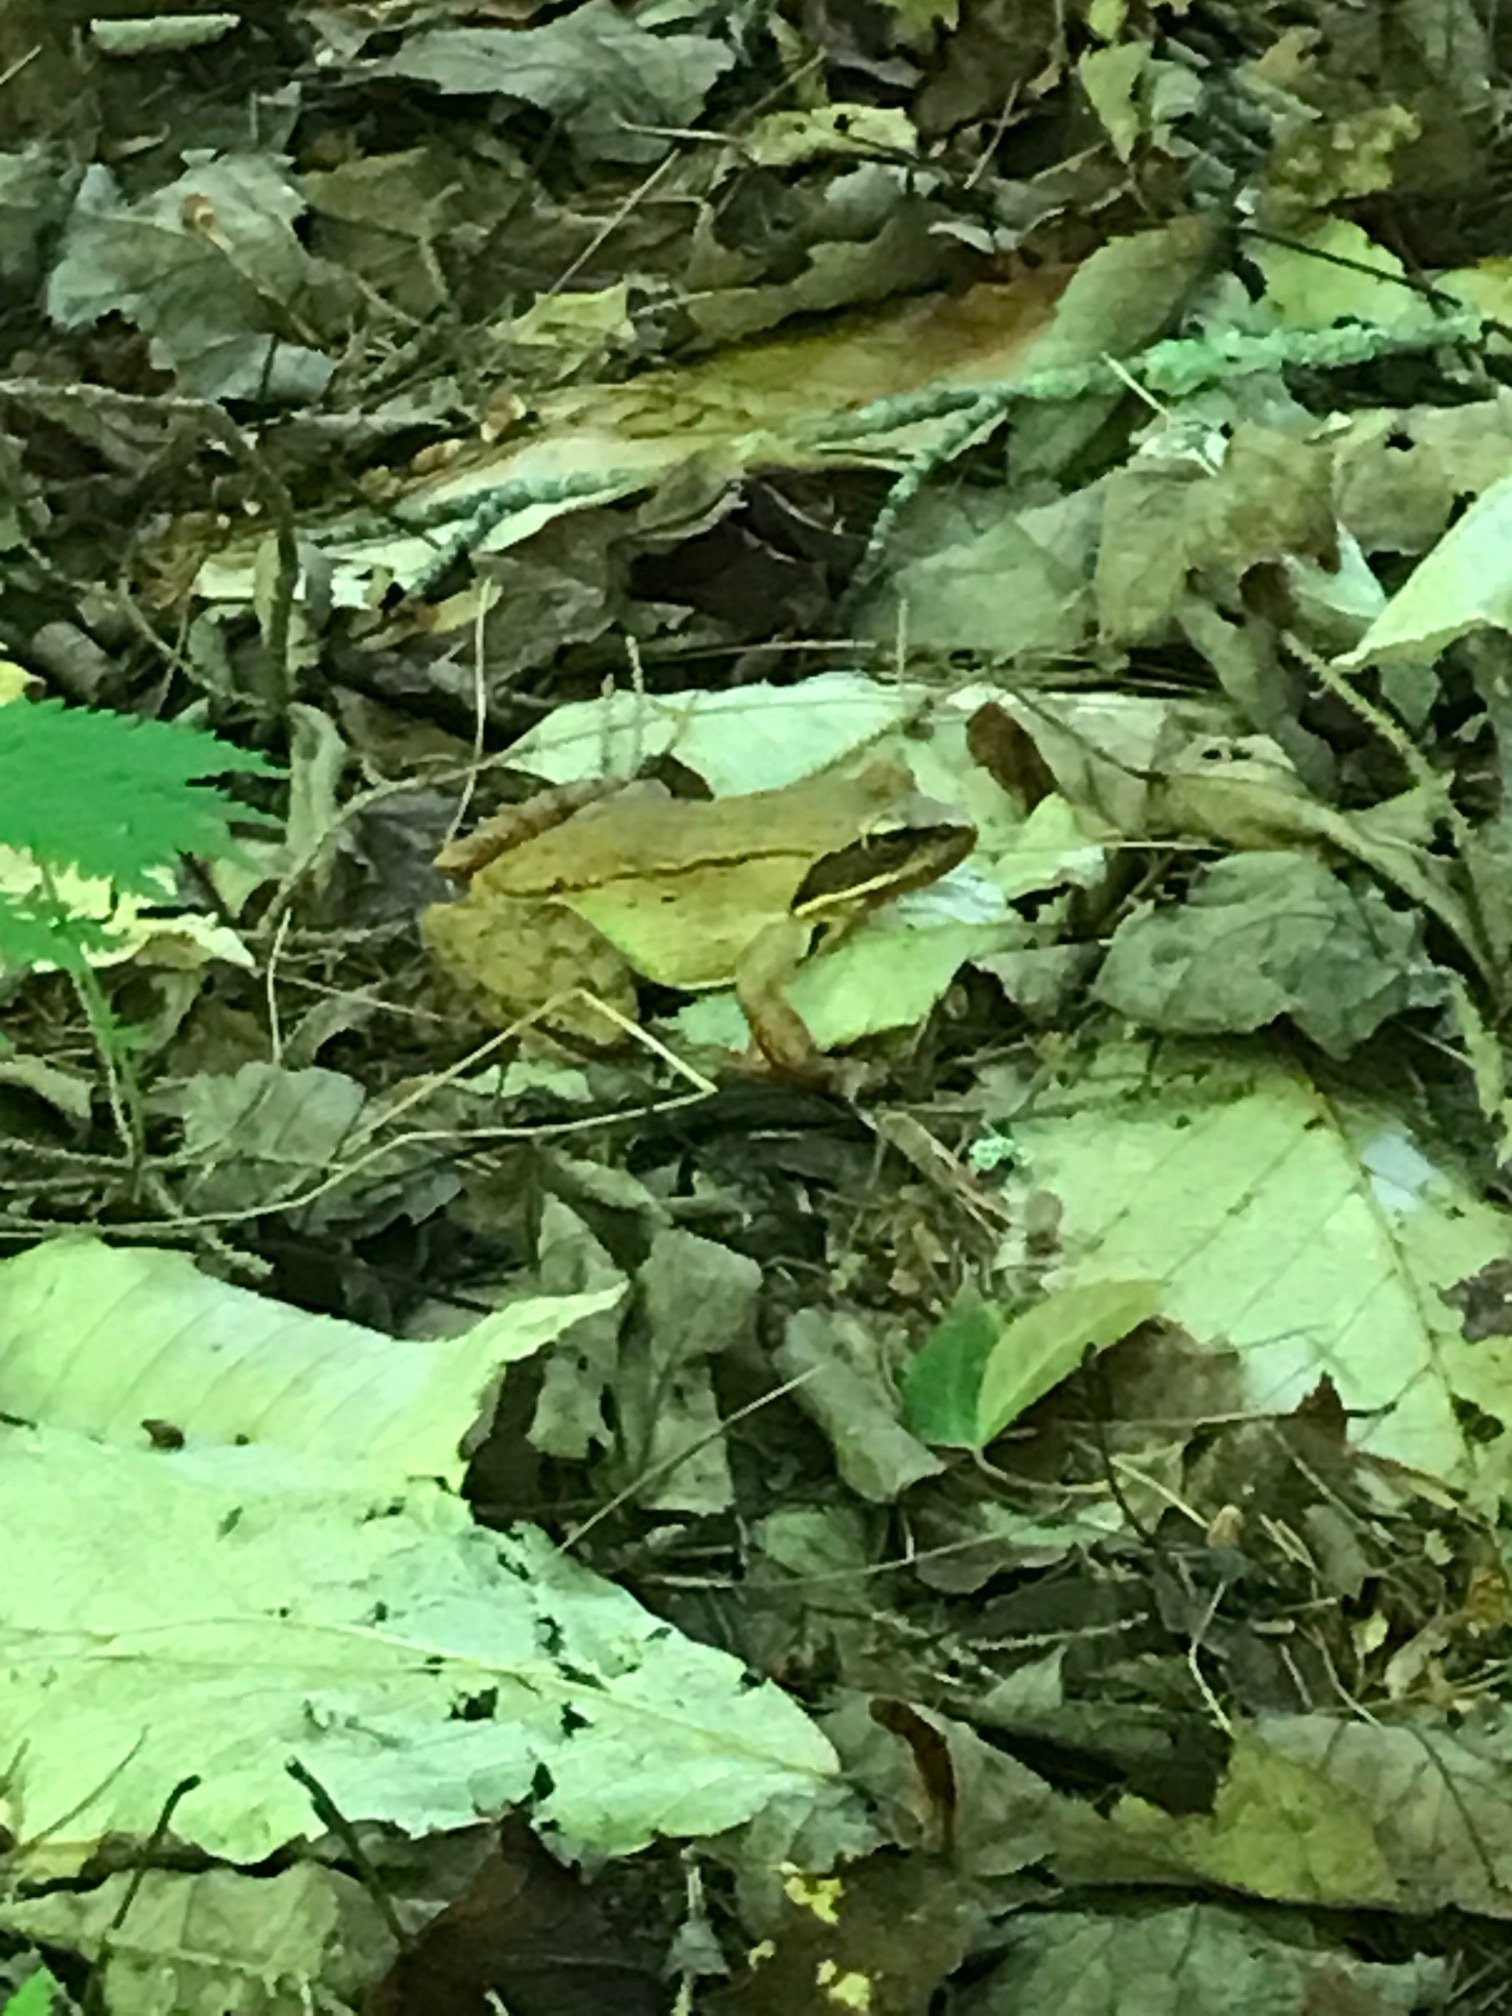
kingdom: Animalia
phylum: Chordata
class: Amphibia
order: Anura
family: Ranidae
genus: Lithobates
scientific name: Lithobates sylvaticus
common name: Wood frog
